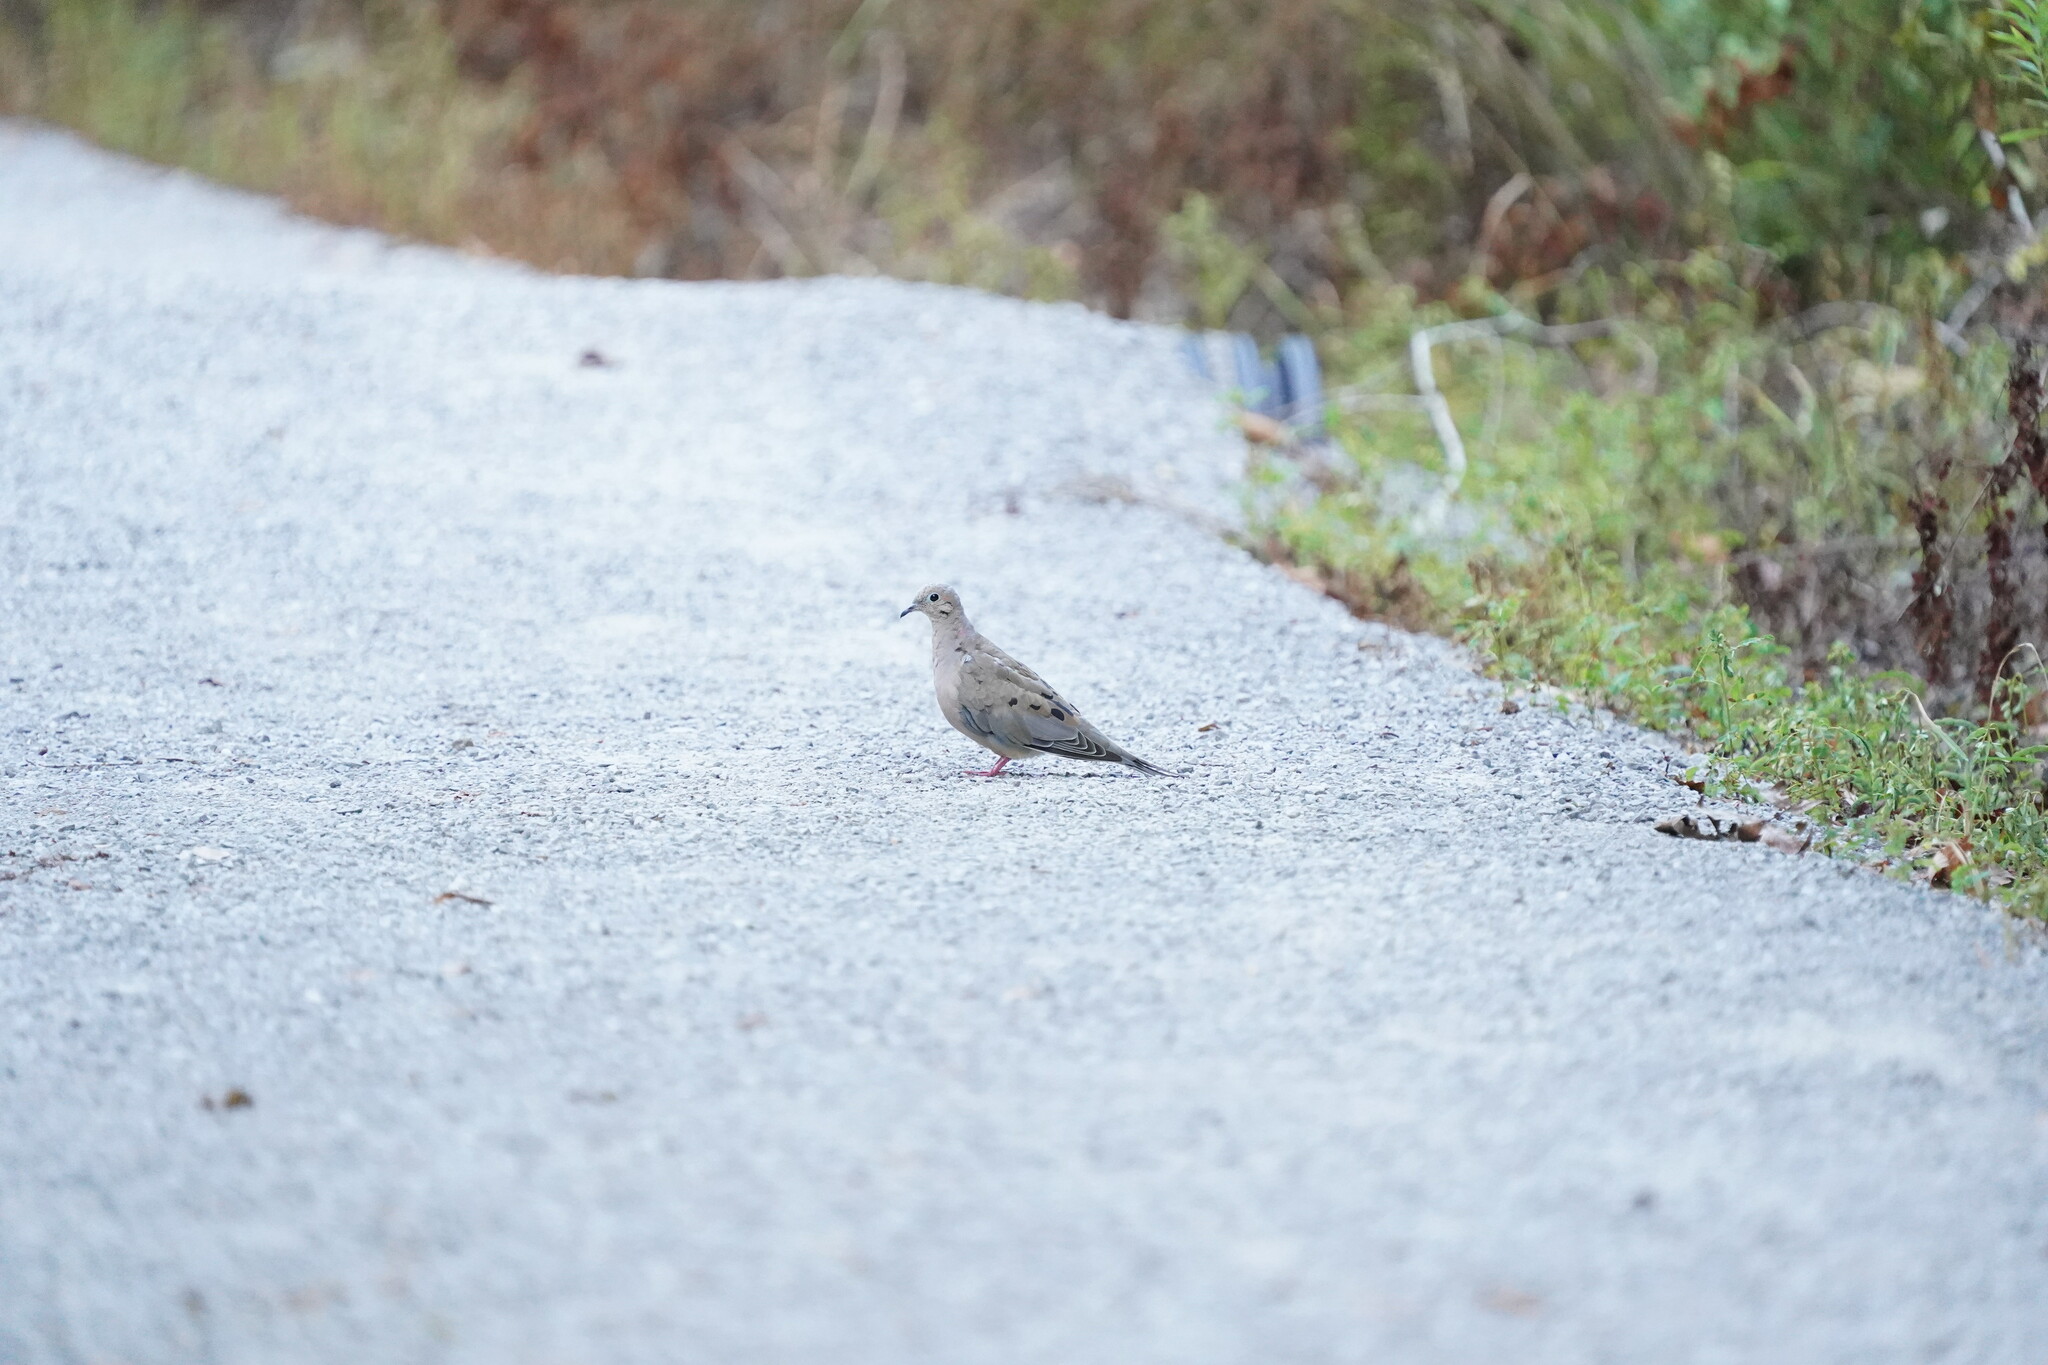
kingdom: Animalia
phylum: Chordata
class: Aves
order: Columbiformes
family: Columbidae
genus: Zenaida
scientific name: Zenaida macroura
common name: Mourning dove
